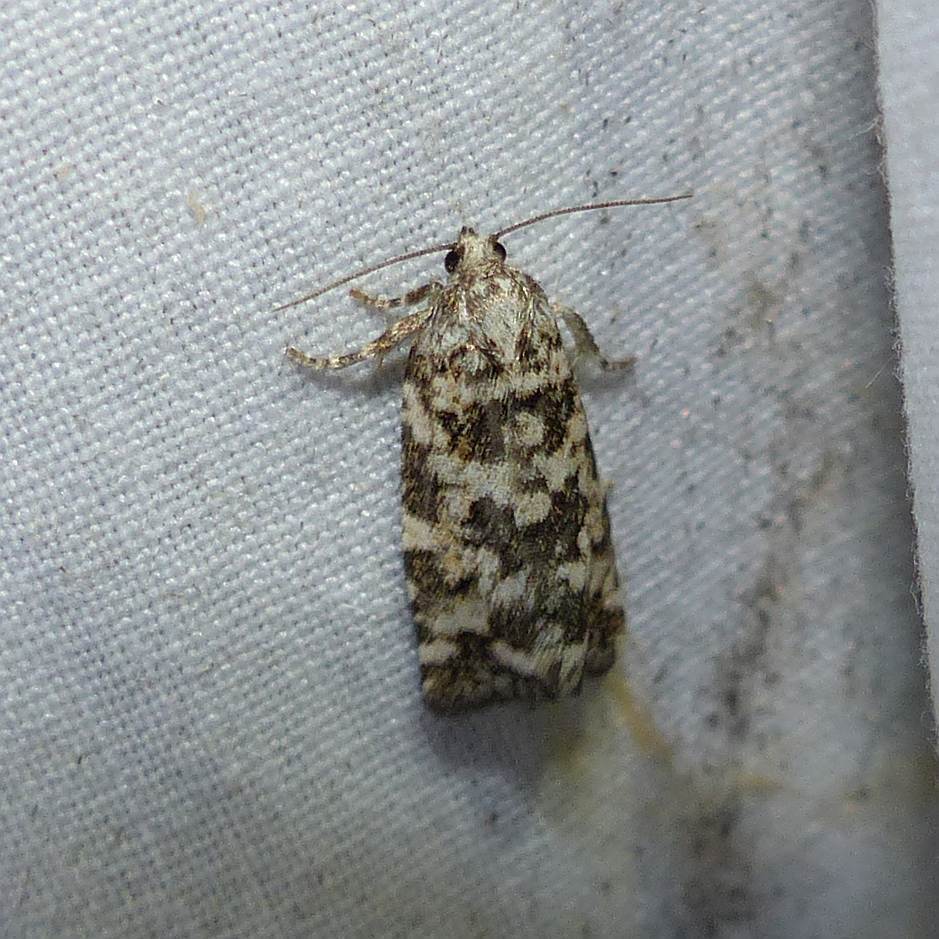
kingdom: Animalia
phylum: Arthropoda
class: Insecta
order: Lepidoptera
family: Tortricidae
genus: Archips
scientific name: Archips packardiana
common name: Spring spruce needle moth
